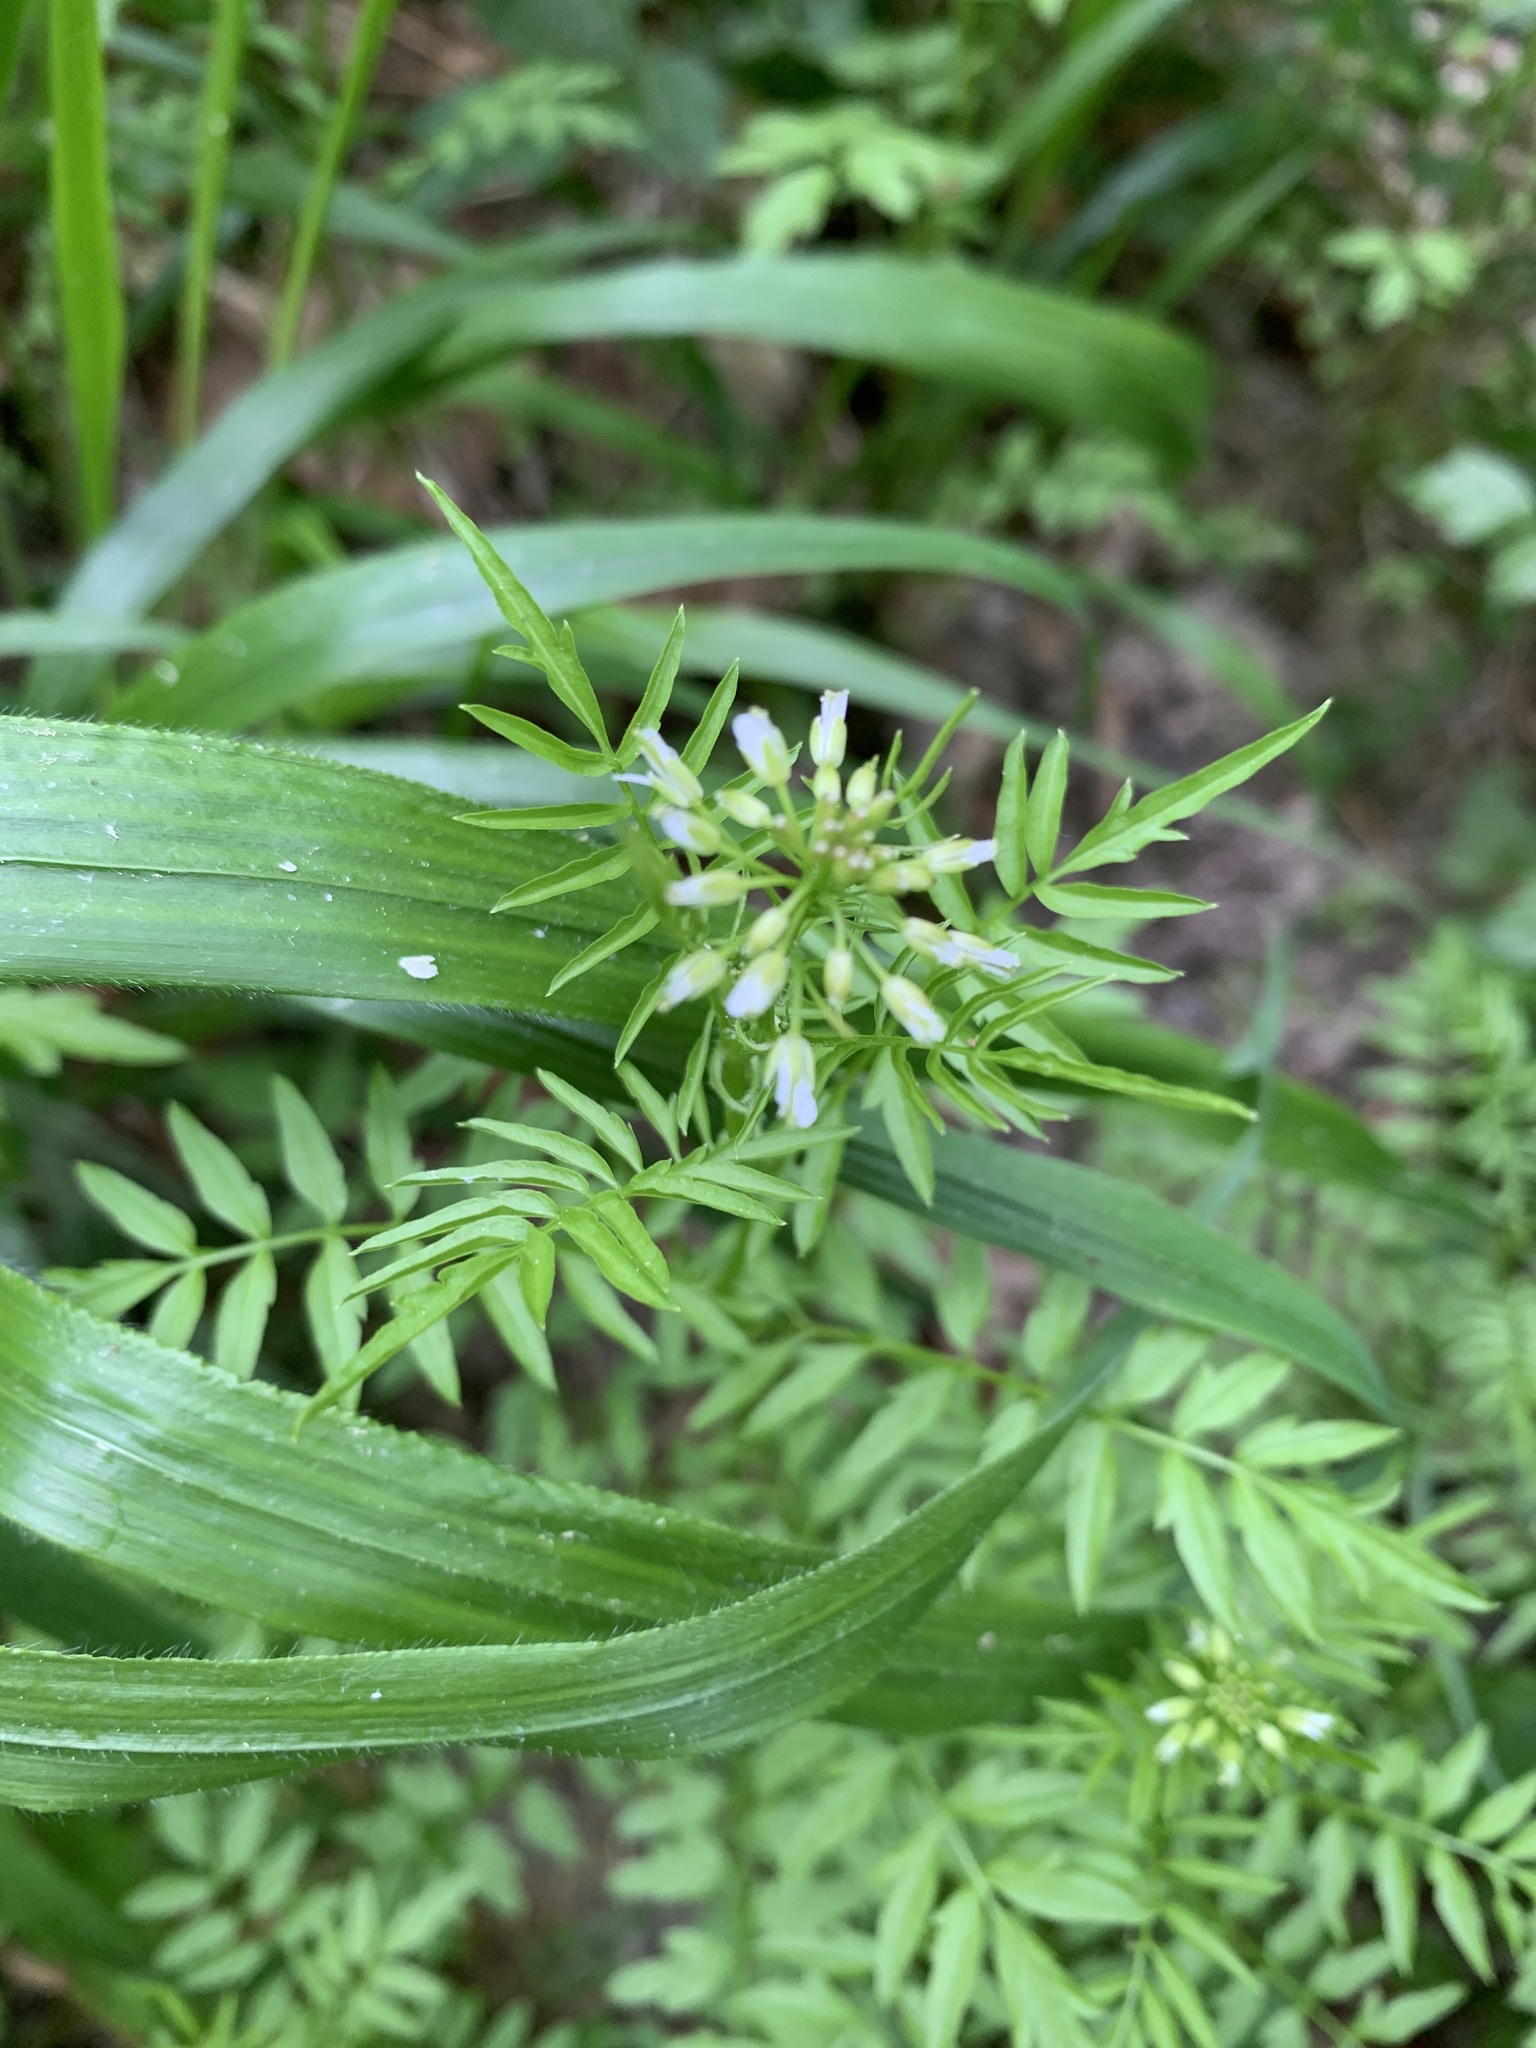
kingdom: Plantae
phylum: Tracheophyta
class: Magnoliopsida
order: Brassicales
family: Brassicaceae
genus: Cardamine
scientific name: Cardamine impatiens
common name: Narrow-leaved bitter-cress
